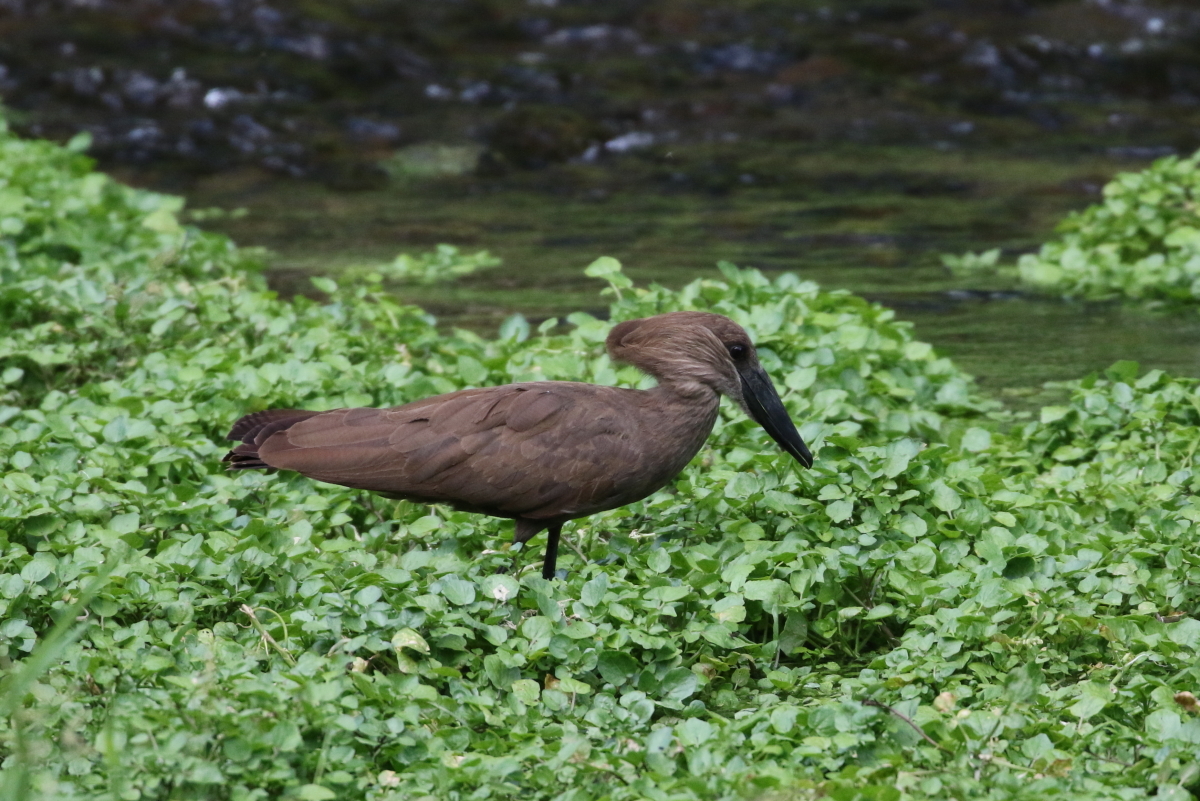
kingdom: Animalia
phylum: Chordata
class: Aves
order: Pelecaniformes
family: Scopidae
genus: Scopus
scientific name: Scopus umbretta
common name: Hamerkop
